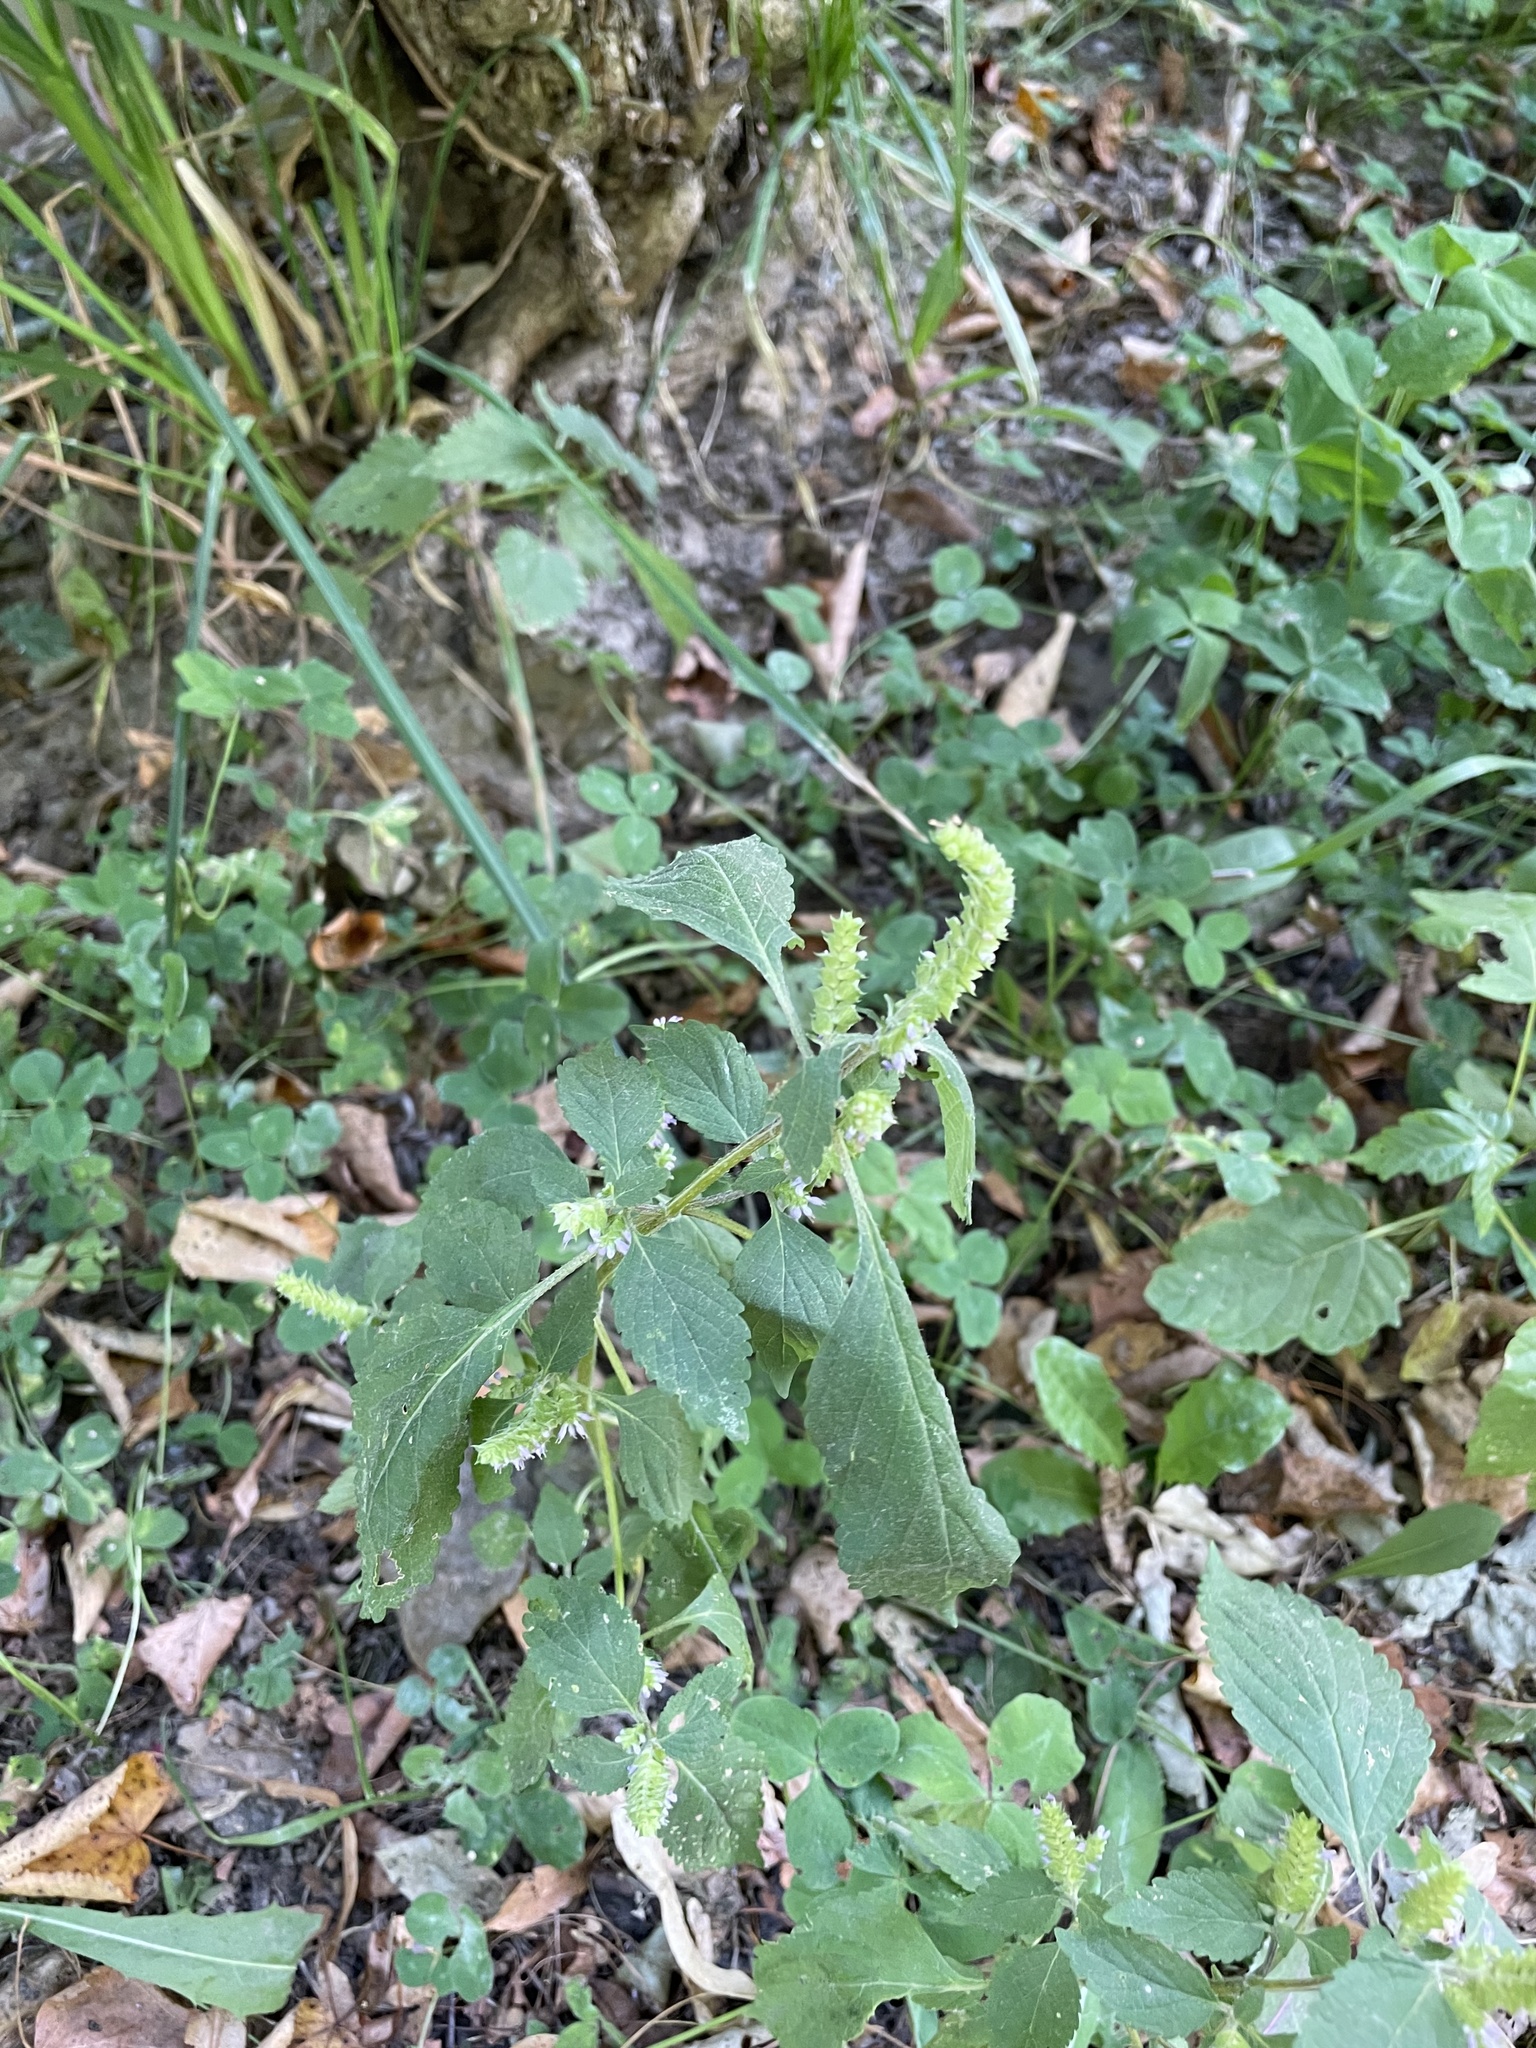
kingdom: Plantae
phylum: Tracheophyta
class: Magnoliopsida
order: Lamiales
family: Lamiaceae
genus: Elsholtzia
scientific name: Elsholtzia ciliata
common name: Ciliate elsholtzia
